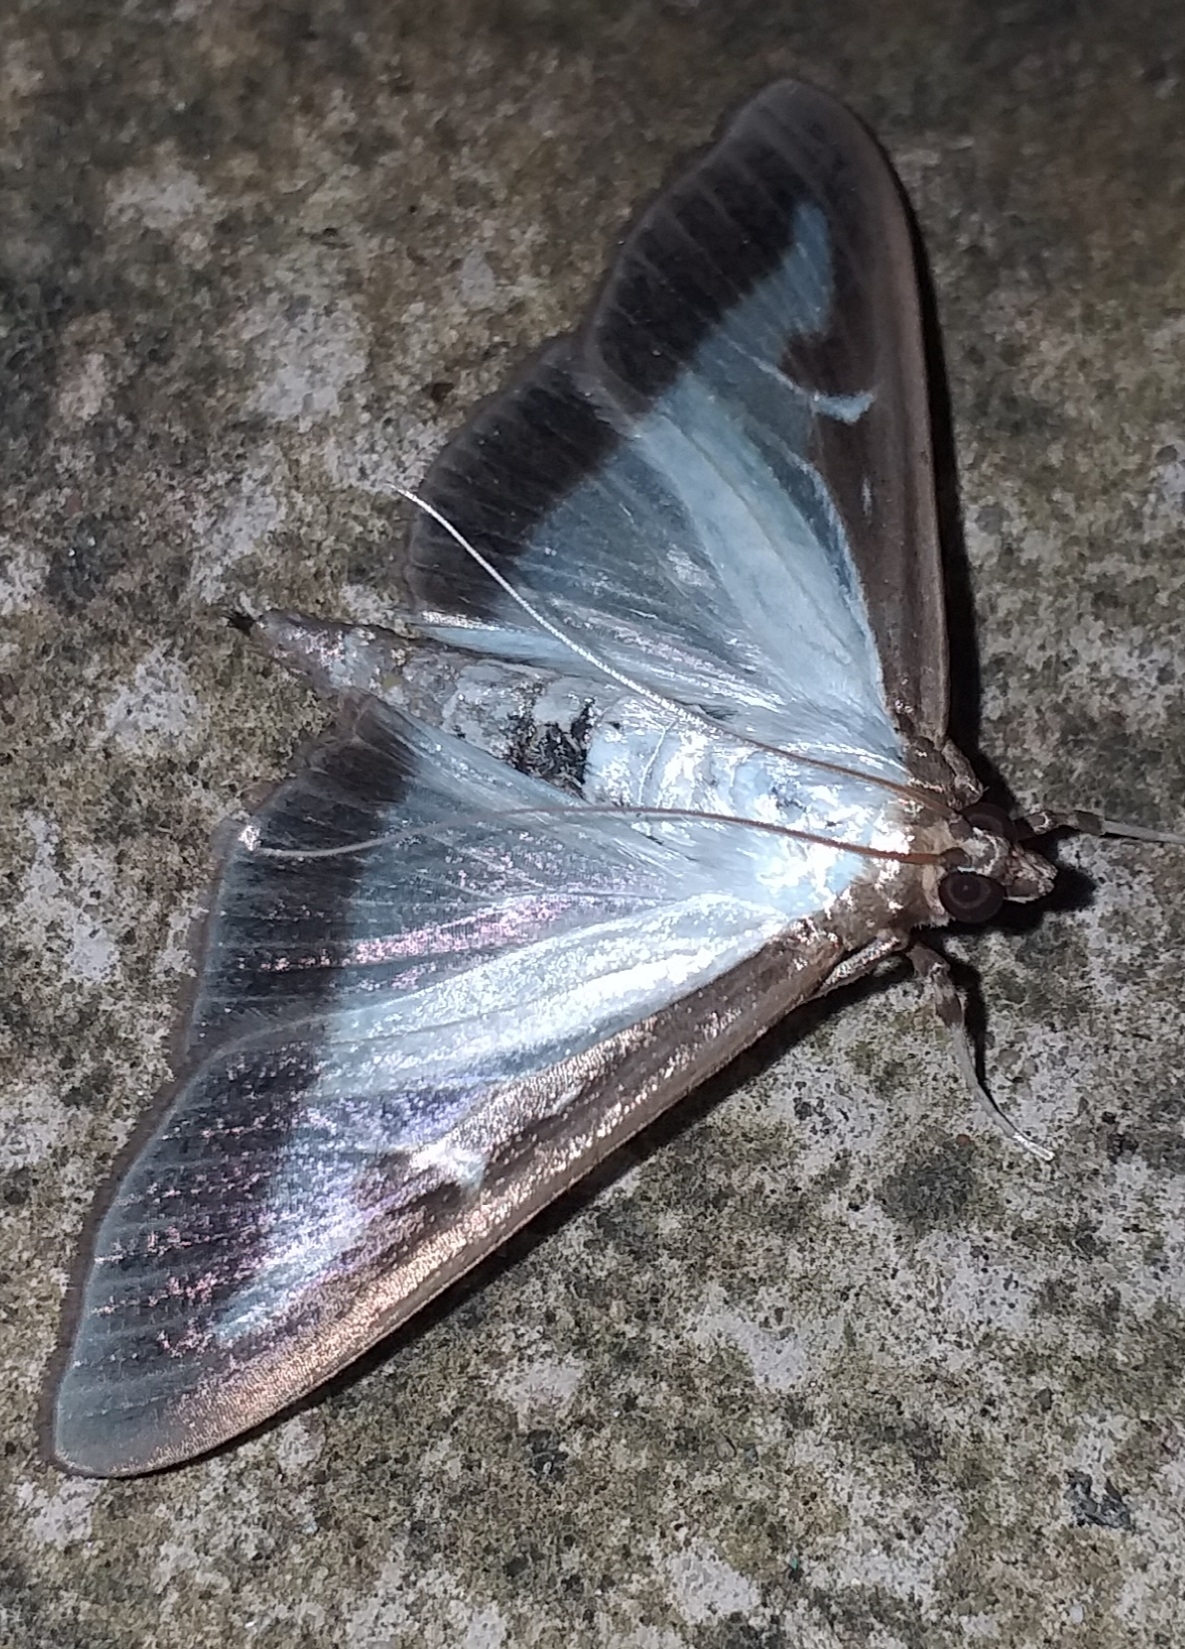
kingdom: Animalia
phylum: Arthropoda
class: Insecta
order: Lepidoptera
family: Crambidae
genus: Cydalima
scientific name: Cydalima perspectalis
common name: Box tree moth
